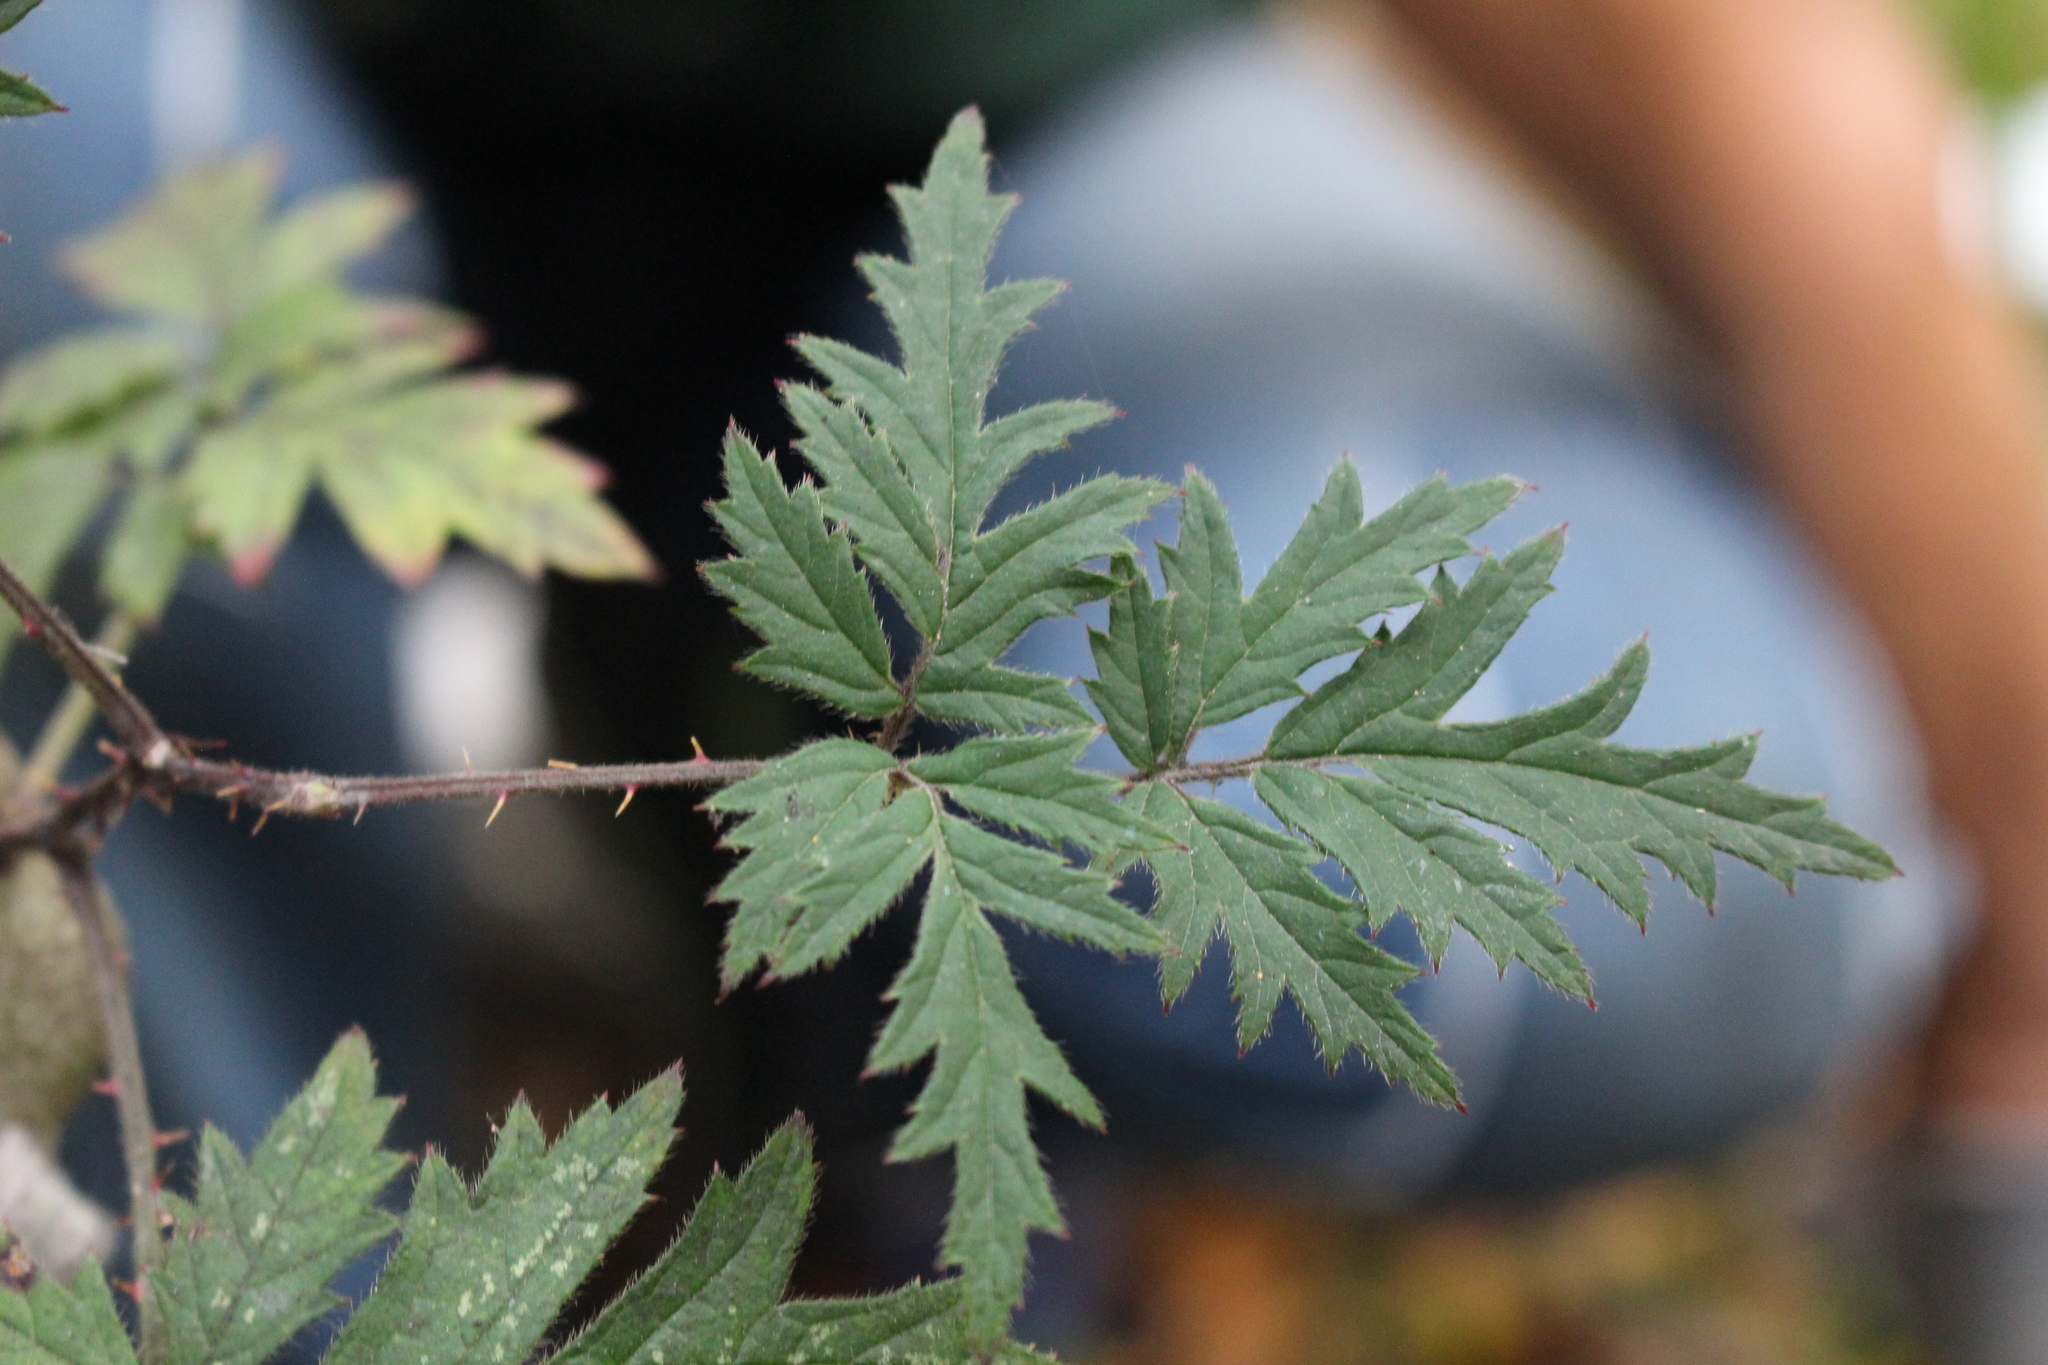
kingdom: Plantae
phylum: Tracheophyta
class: Magnoliopsida
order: Rosales
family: Rosaceae
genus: Rubus
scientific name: Rubus laciniatus
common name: Evergreen blackberry
